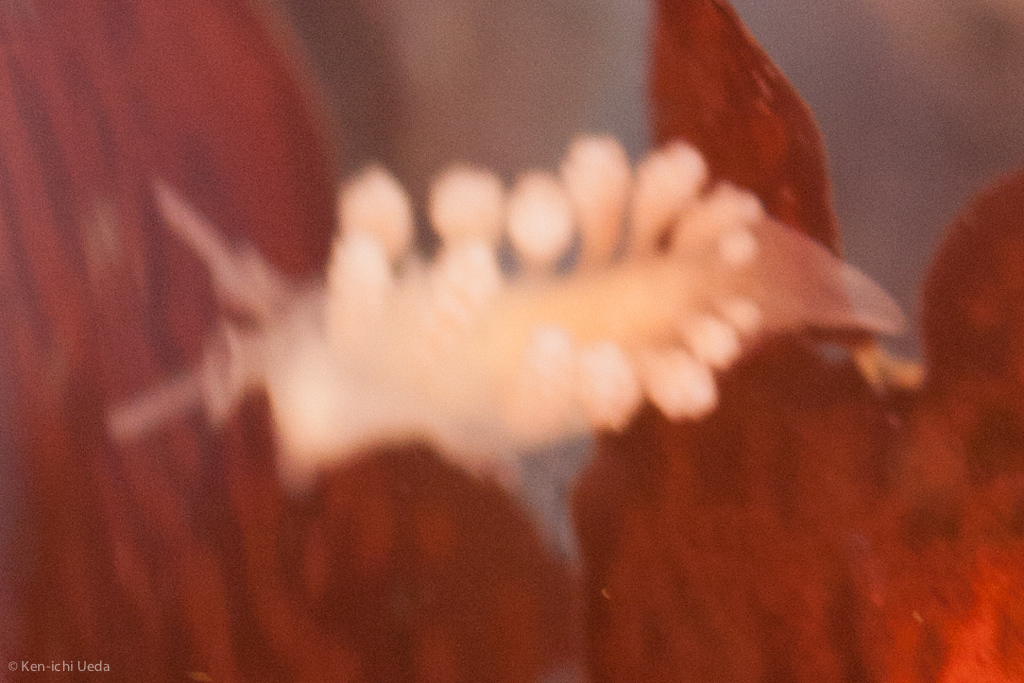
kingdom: Animalia
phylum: Mollusca
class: Gastropoda
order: Nudibranchia
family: Dotidae
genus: Doto
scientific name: Doto amyra
